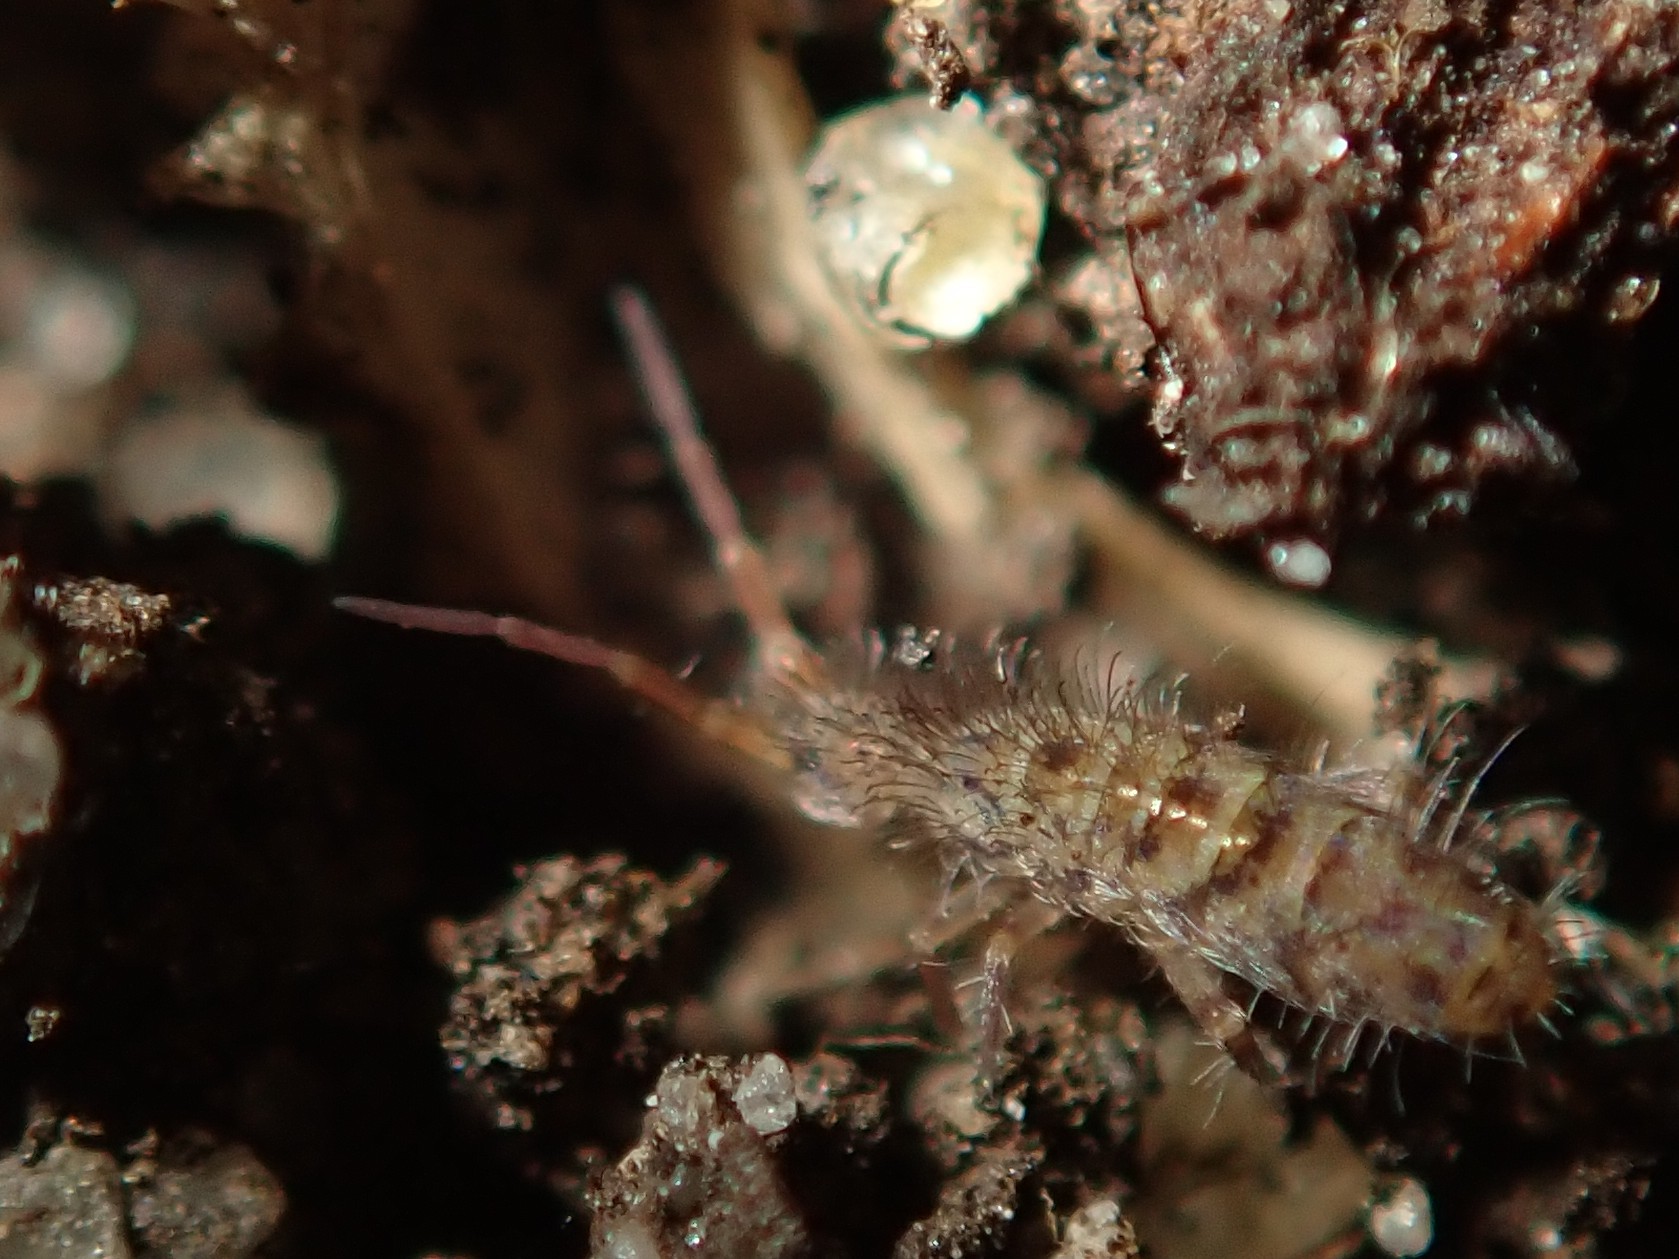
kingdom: Animalia
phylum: Arthropoda
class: Collembola
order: Entomobryomorpha
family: Orchesellidae
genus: Orchesella
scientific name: Orchesella villosa
